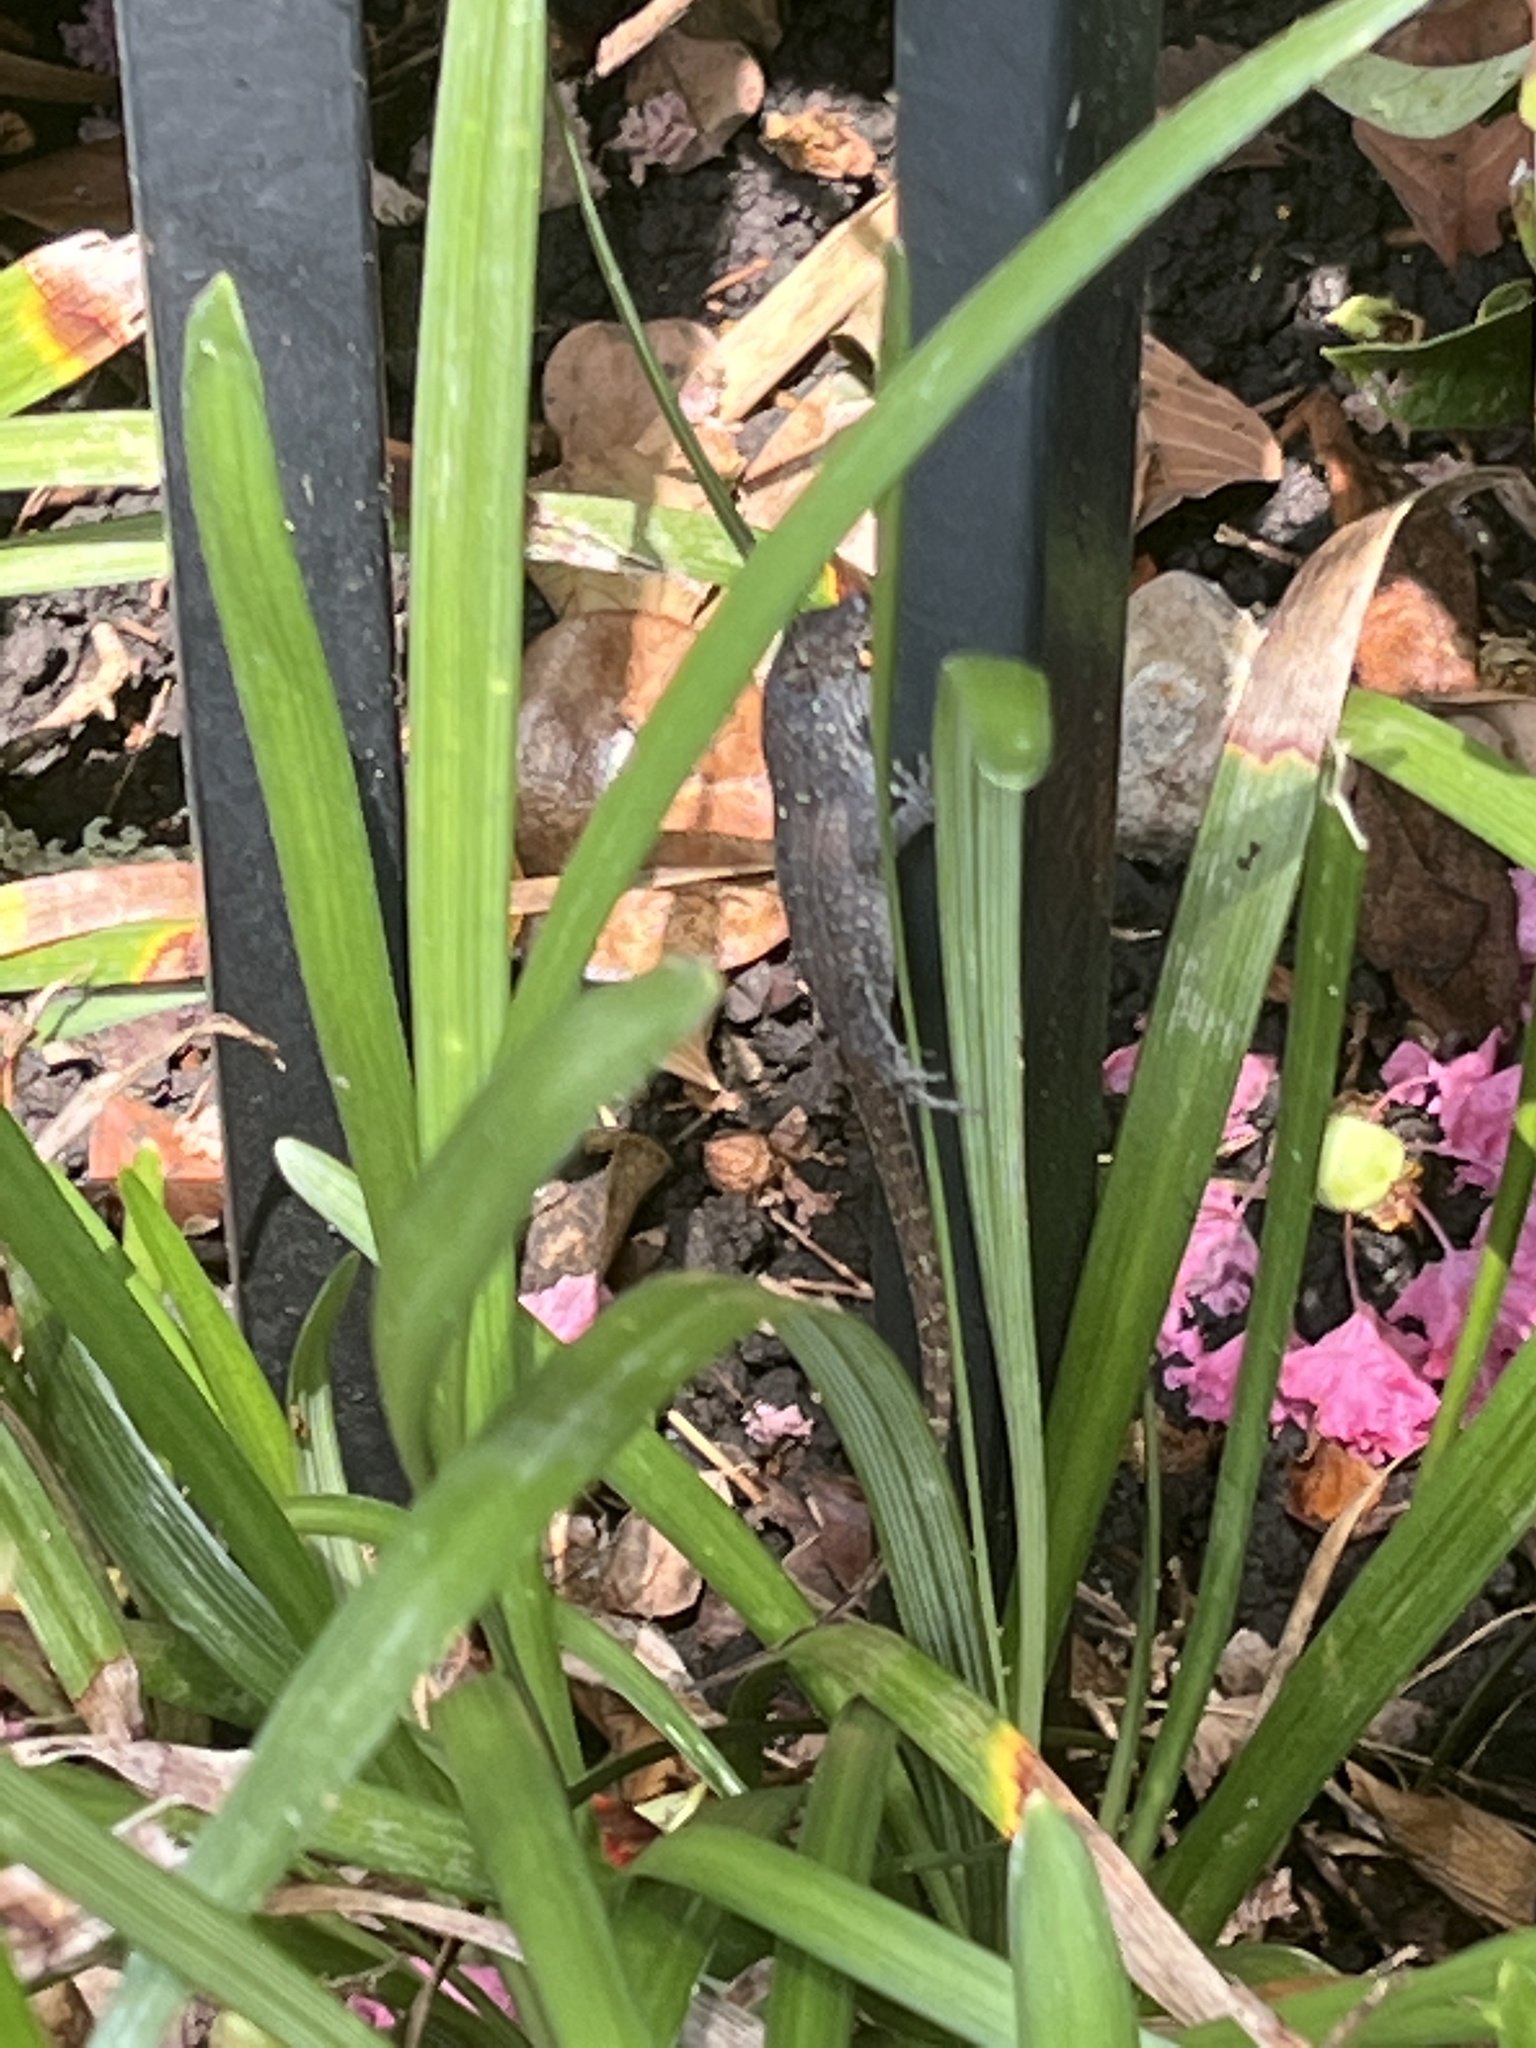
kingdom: Animalia
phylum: Chordata
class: Squamata
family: Dactyloidae
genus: Anolis
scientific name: Anolis sagrei
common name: Brown anole
